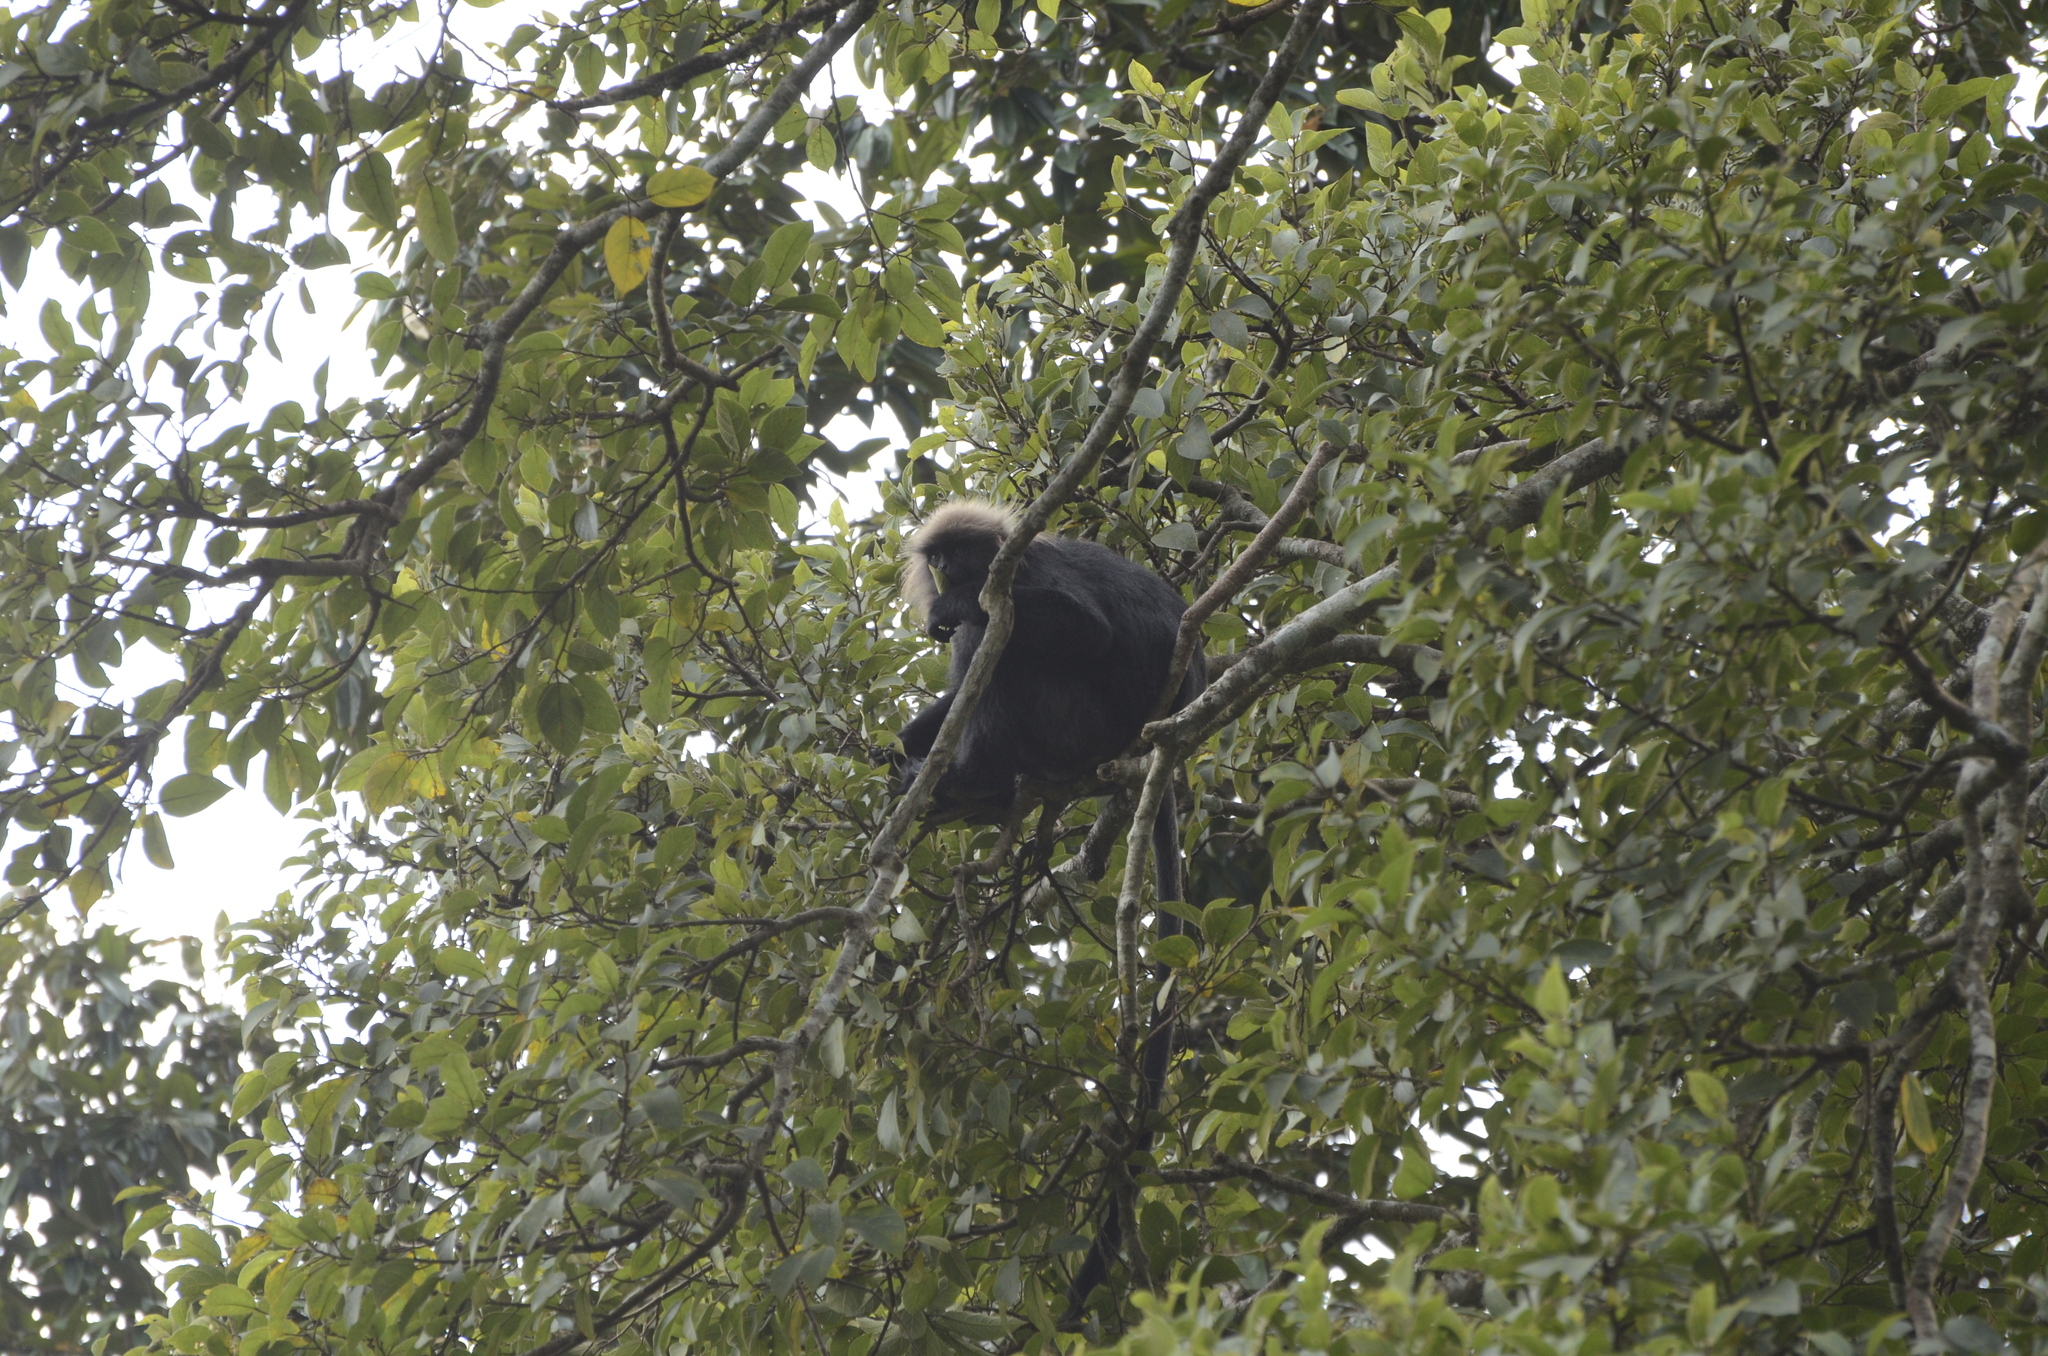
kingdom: Animalia
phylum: Chordata
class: Mammalia
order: Primates
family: Cercopithecidae
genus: Semnopithecus
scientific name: Semnopithecus johnii
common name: Nilgiri langur
